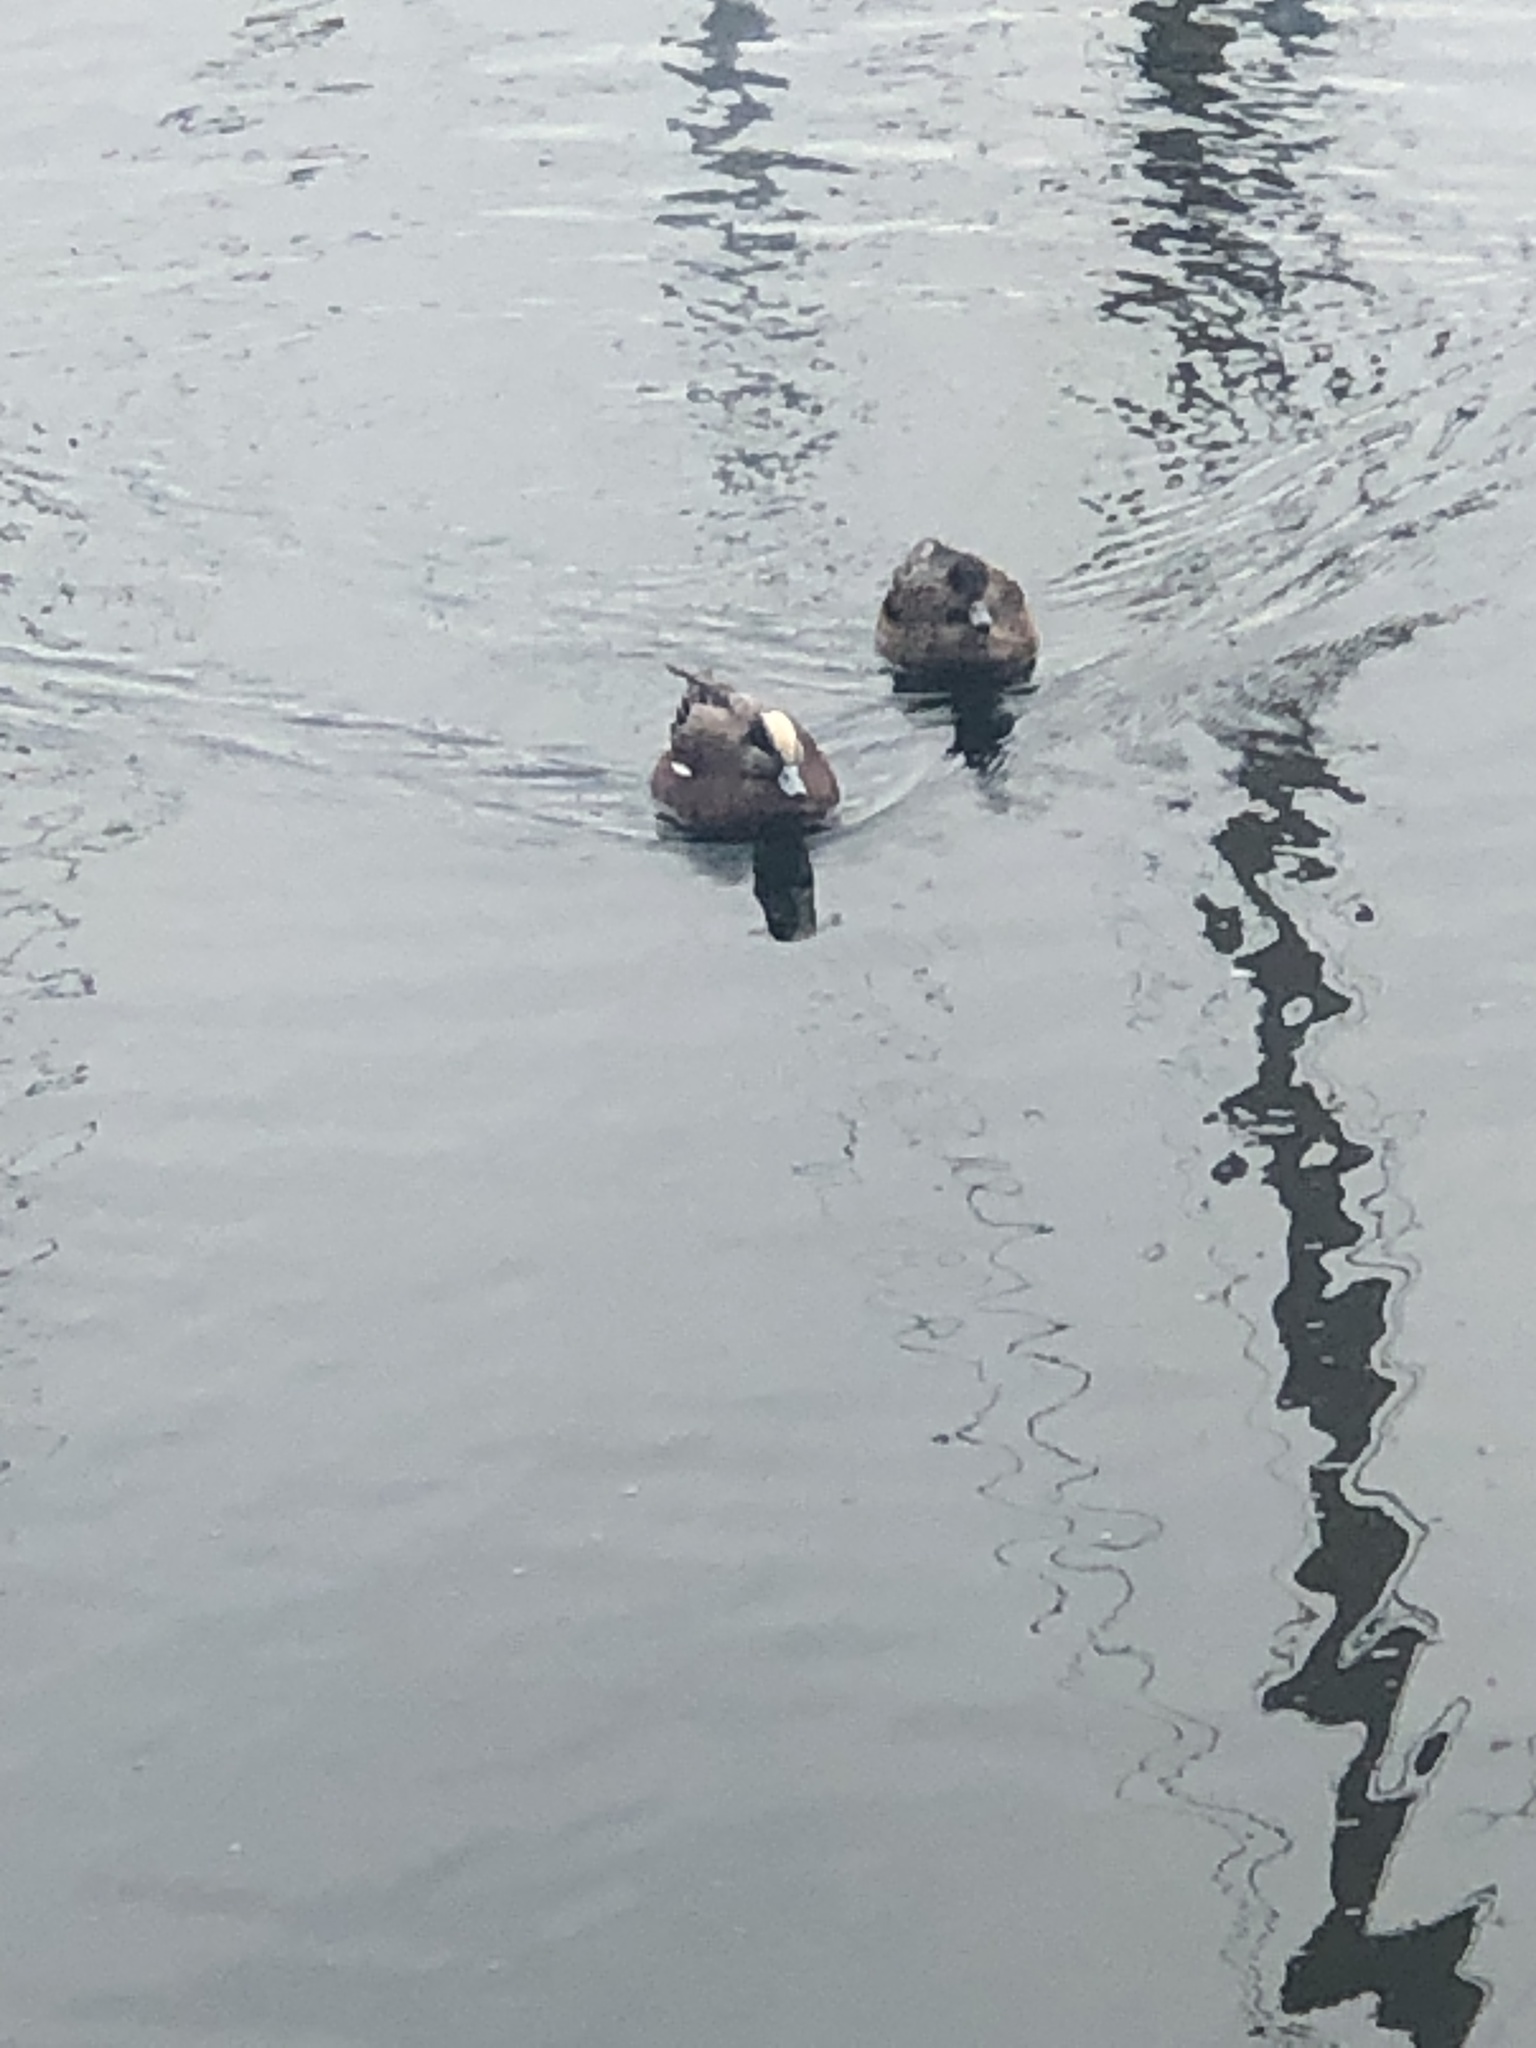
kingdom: Animalia
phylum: Chordata
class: Aves
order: Anseriformes
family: Anatidae
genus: Mareca
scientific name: Mareca americana
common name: American wigeon
